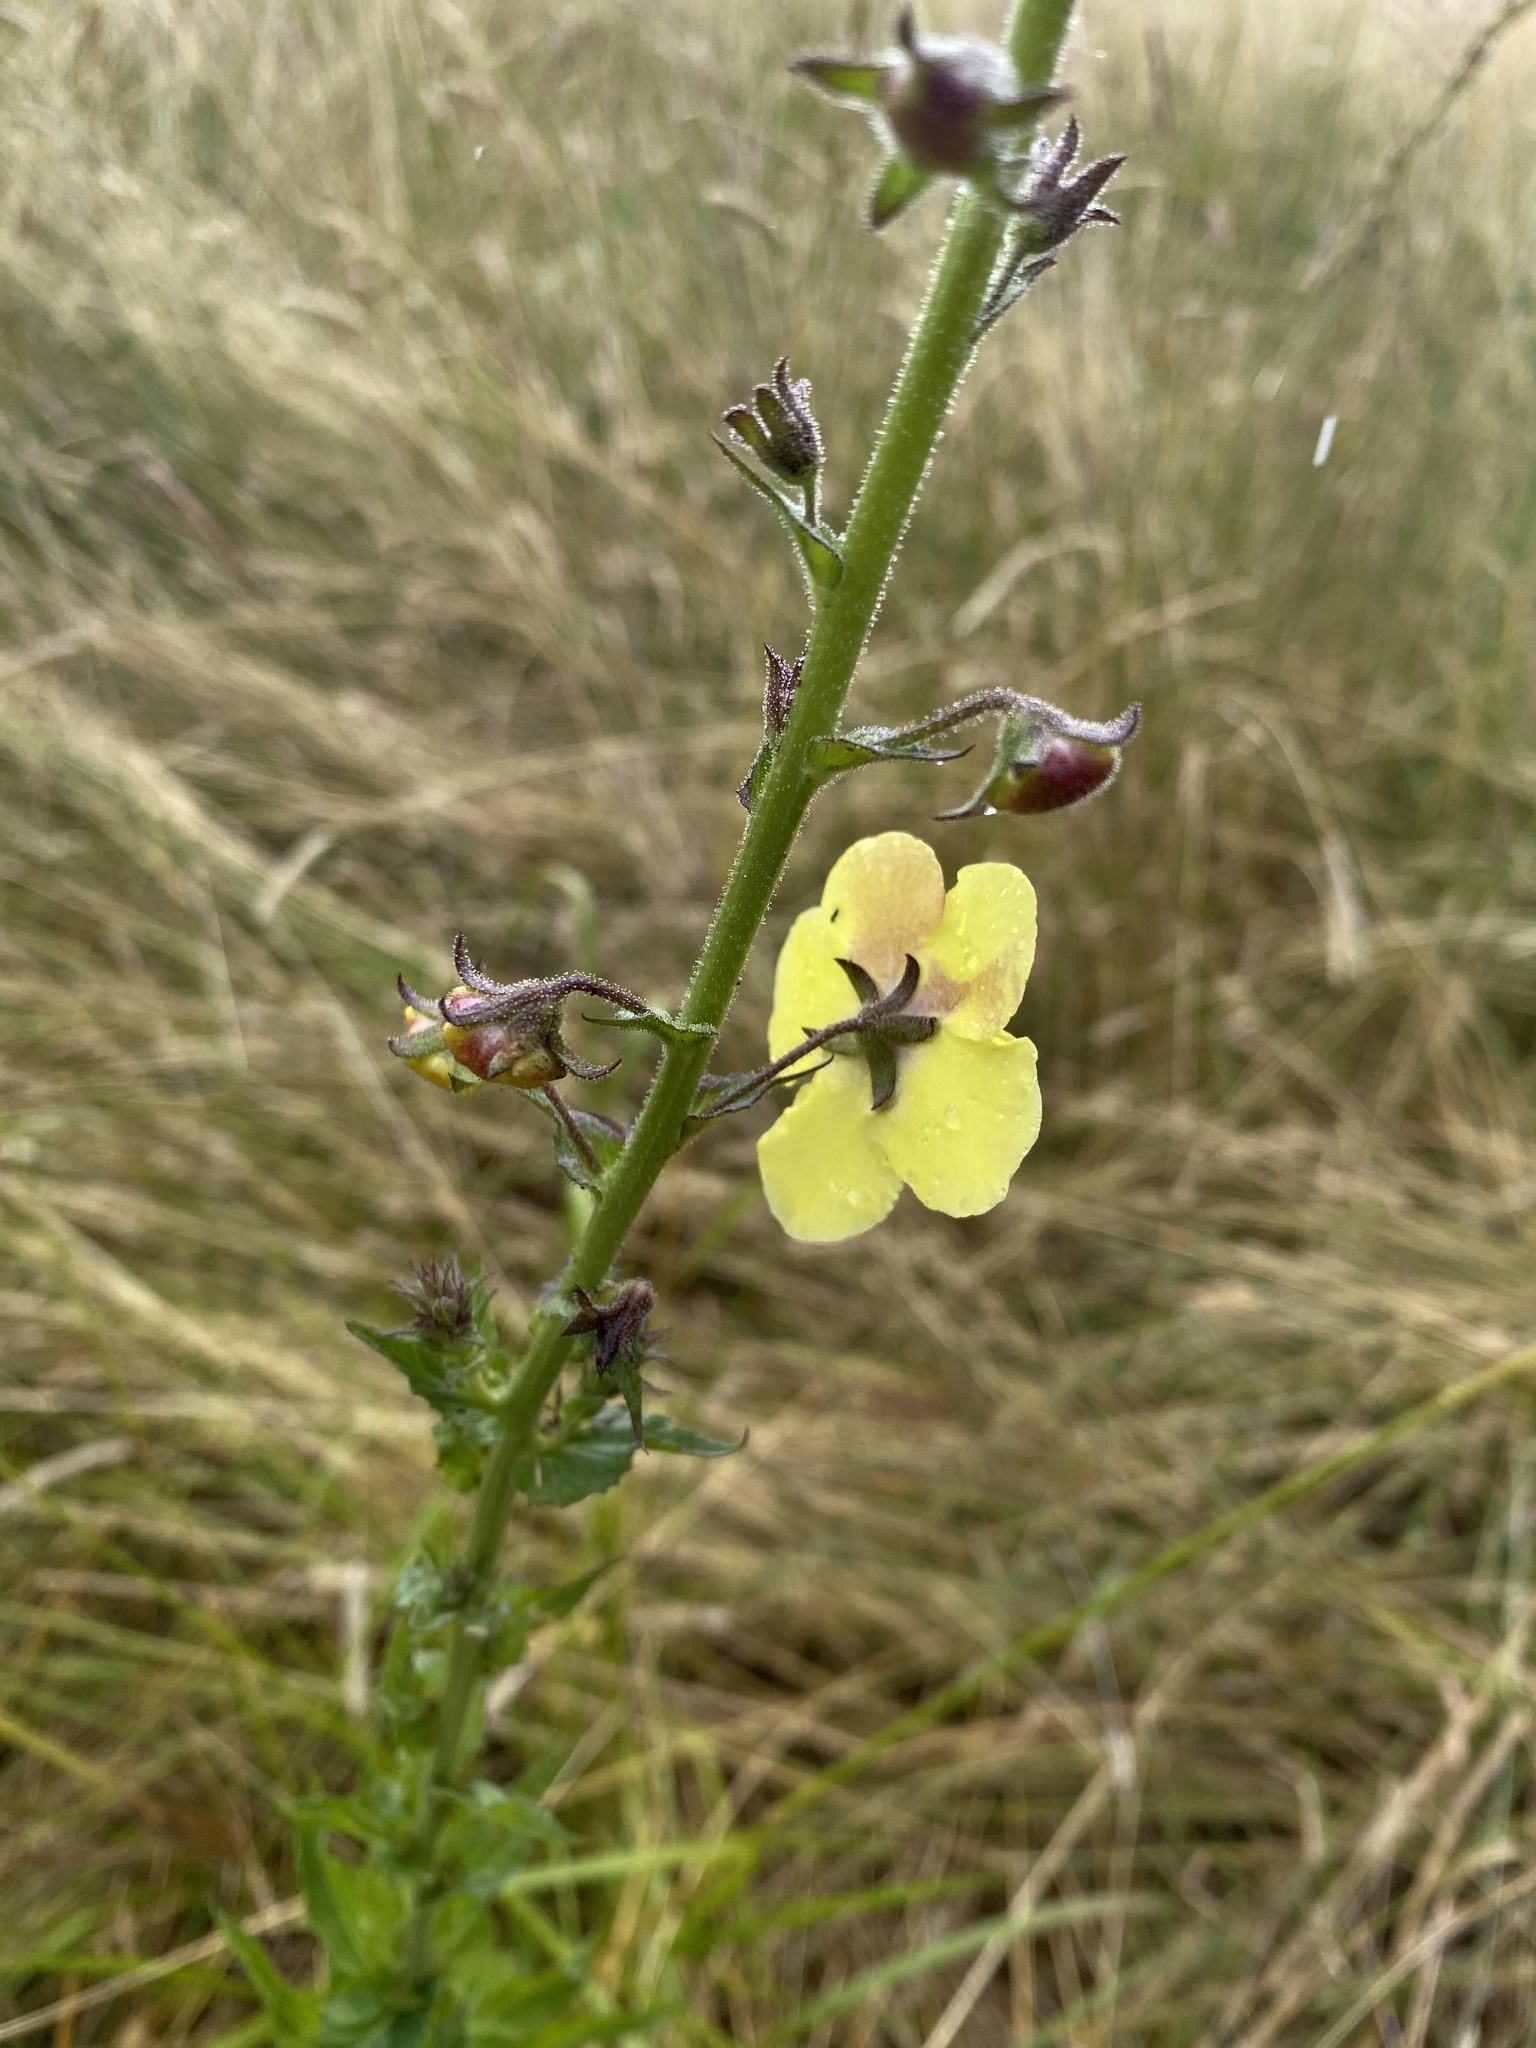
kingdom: Plantae
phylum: Tracheophyta
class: Magnoliopsida
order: Lamiales
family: Scrophulariaceae
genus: Verbascum
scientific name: Verbascum blattaria
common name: Moth mullein
